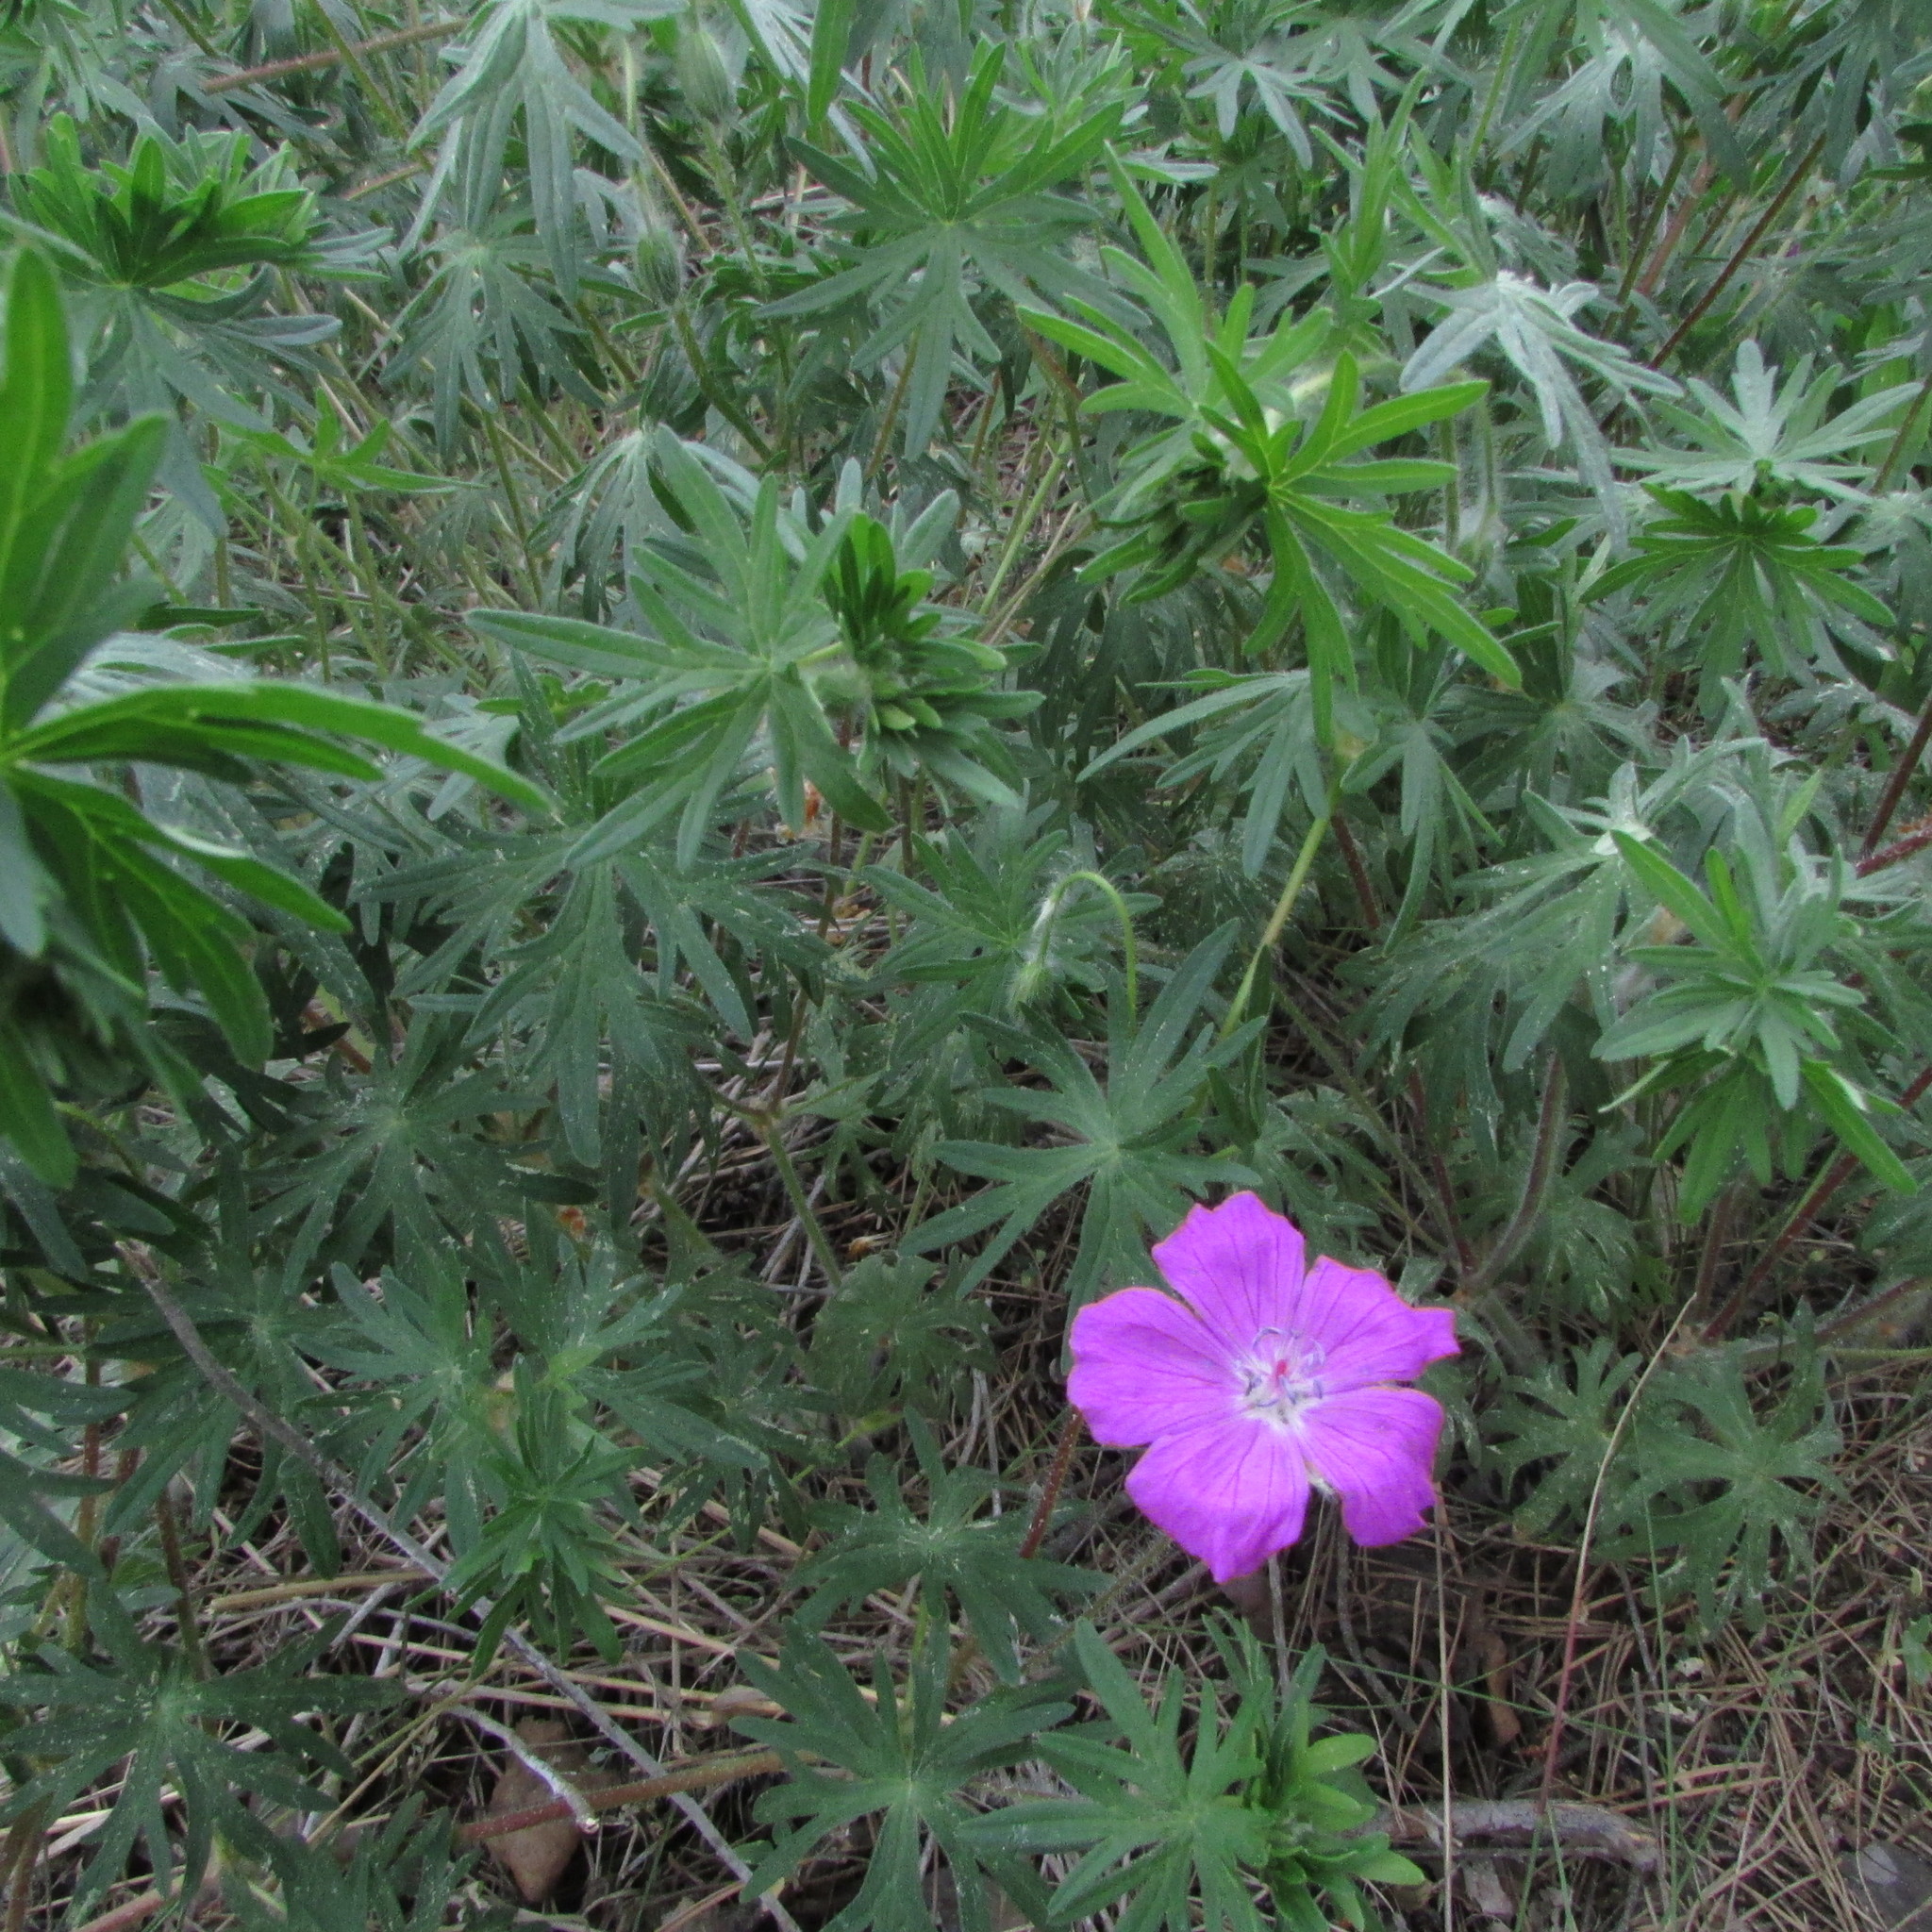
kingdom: Plantae
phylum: Tracheophyta
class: Magnoliopsida
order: Geraniales
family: Geraniaceae
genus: Geranium
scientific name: Geranium sanguineum
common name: Bloody crane's-bill
